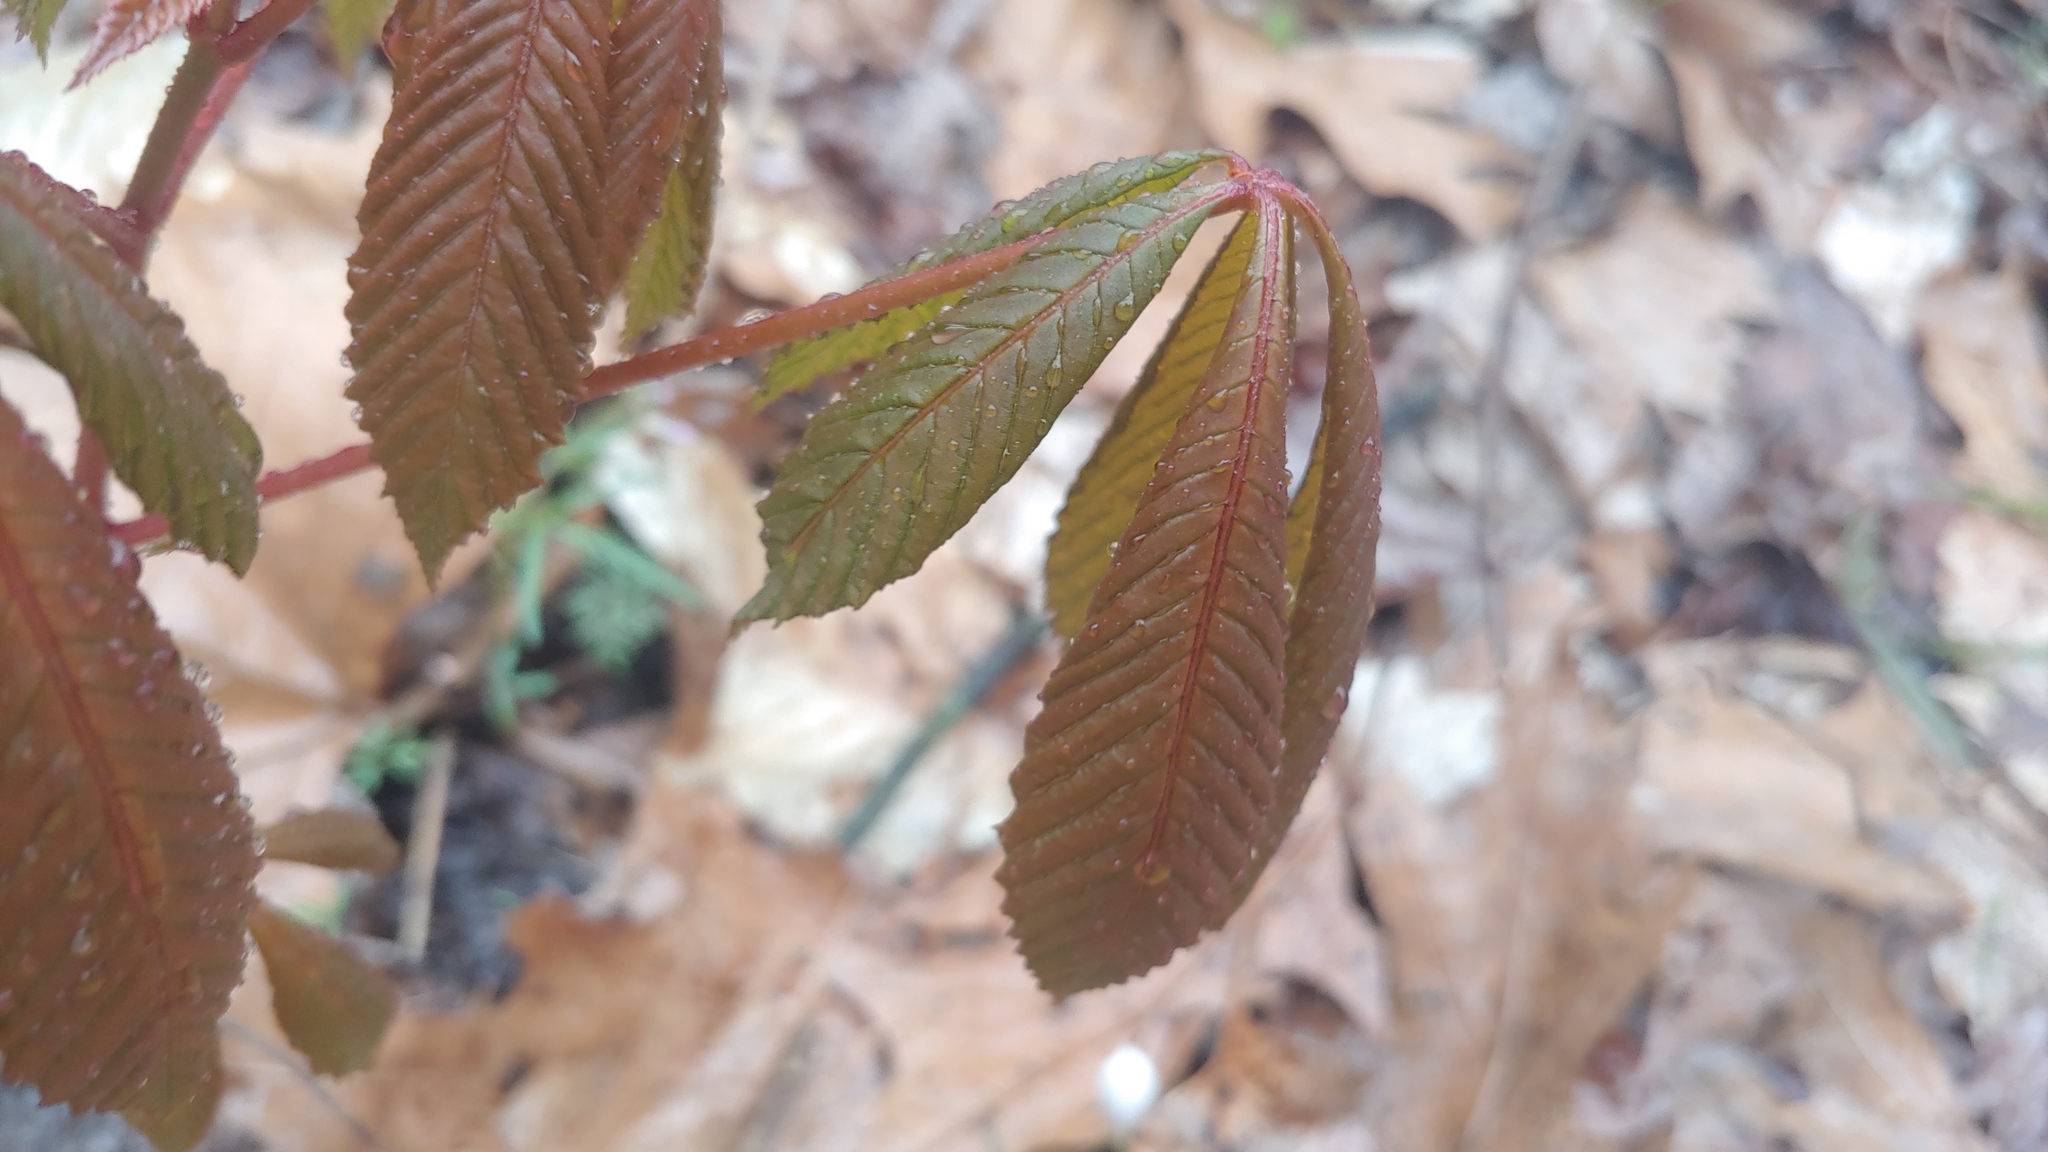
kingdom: Plantae
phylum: Tracheophyta
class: Magnoliopsida
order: Sapindales
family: Sapindaceae
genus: Aesculus
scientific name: Aesculus pavia
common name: Red buckeye
